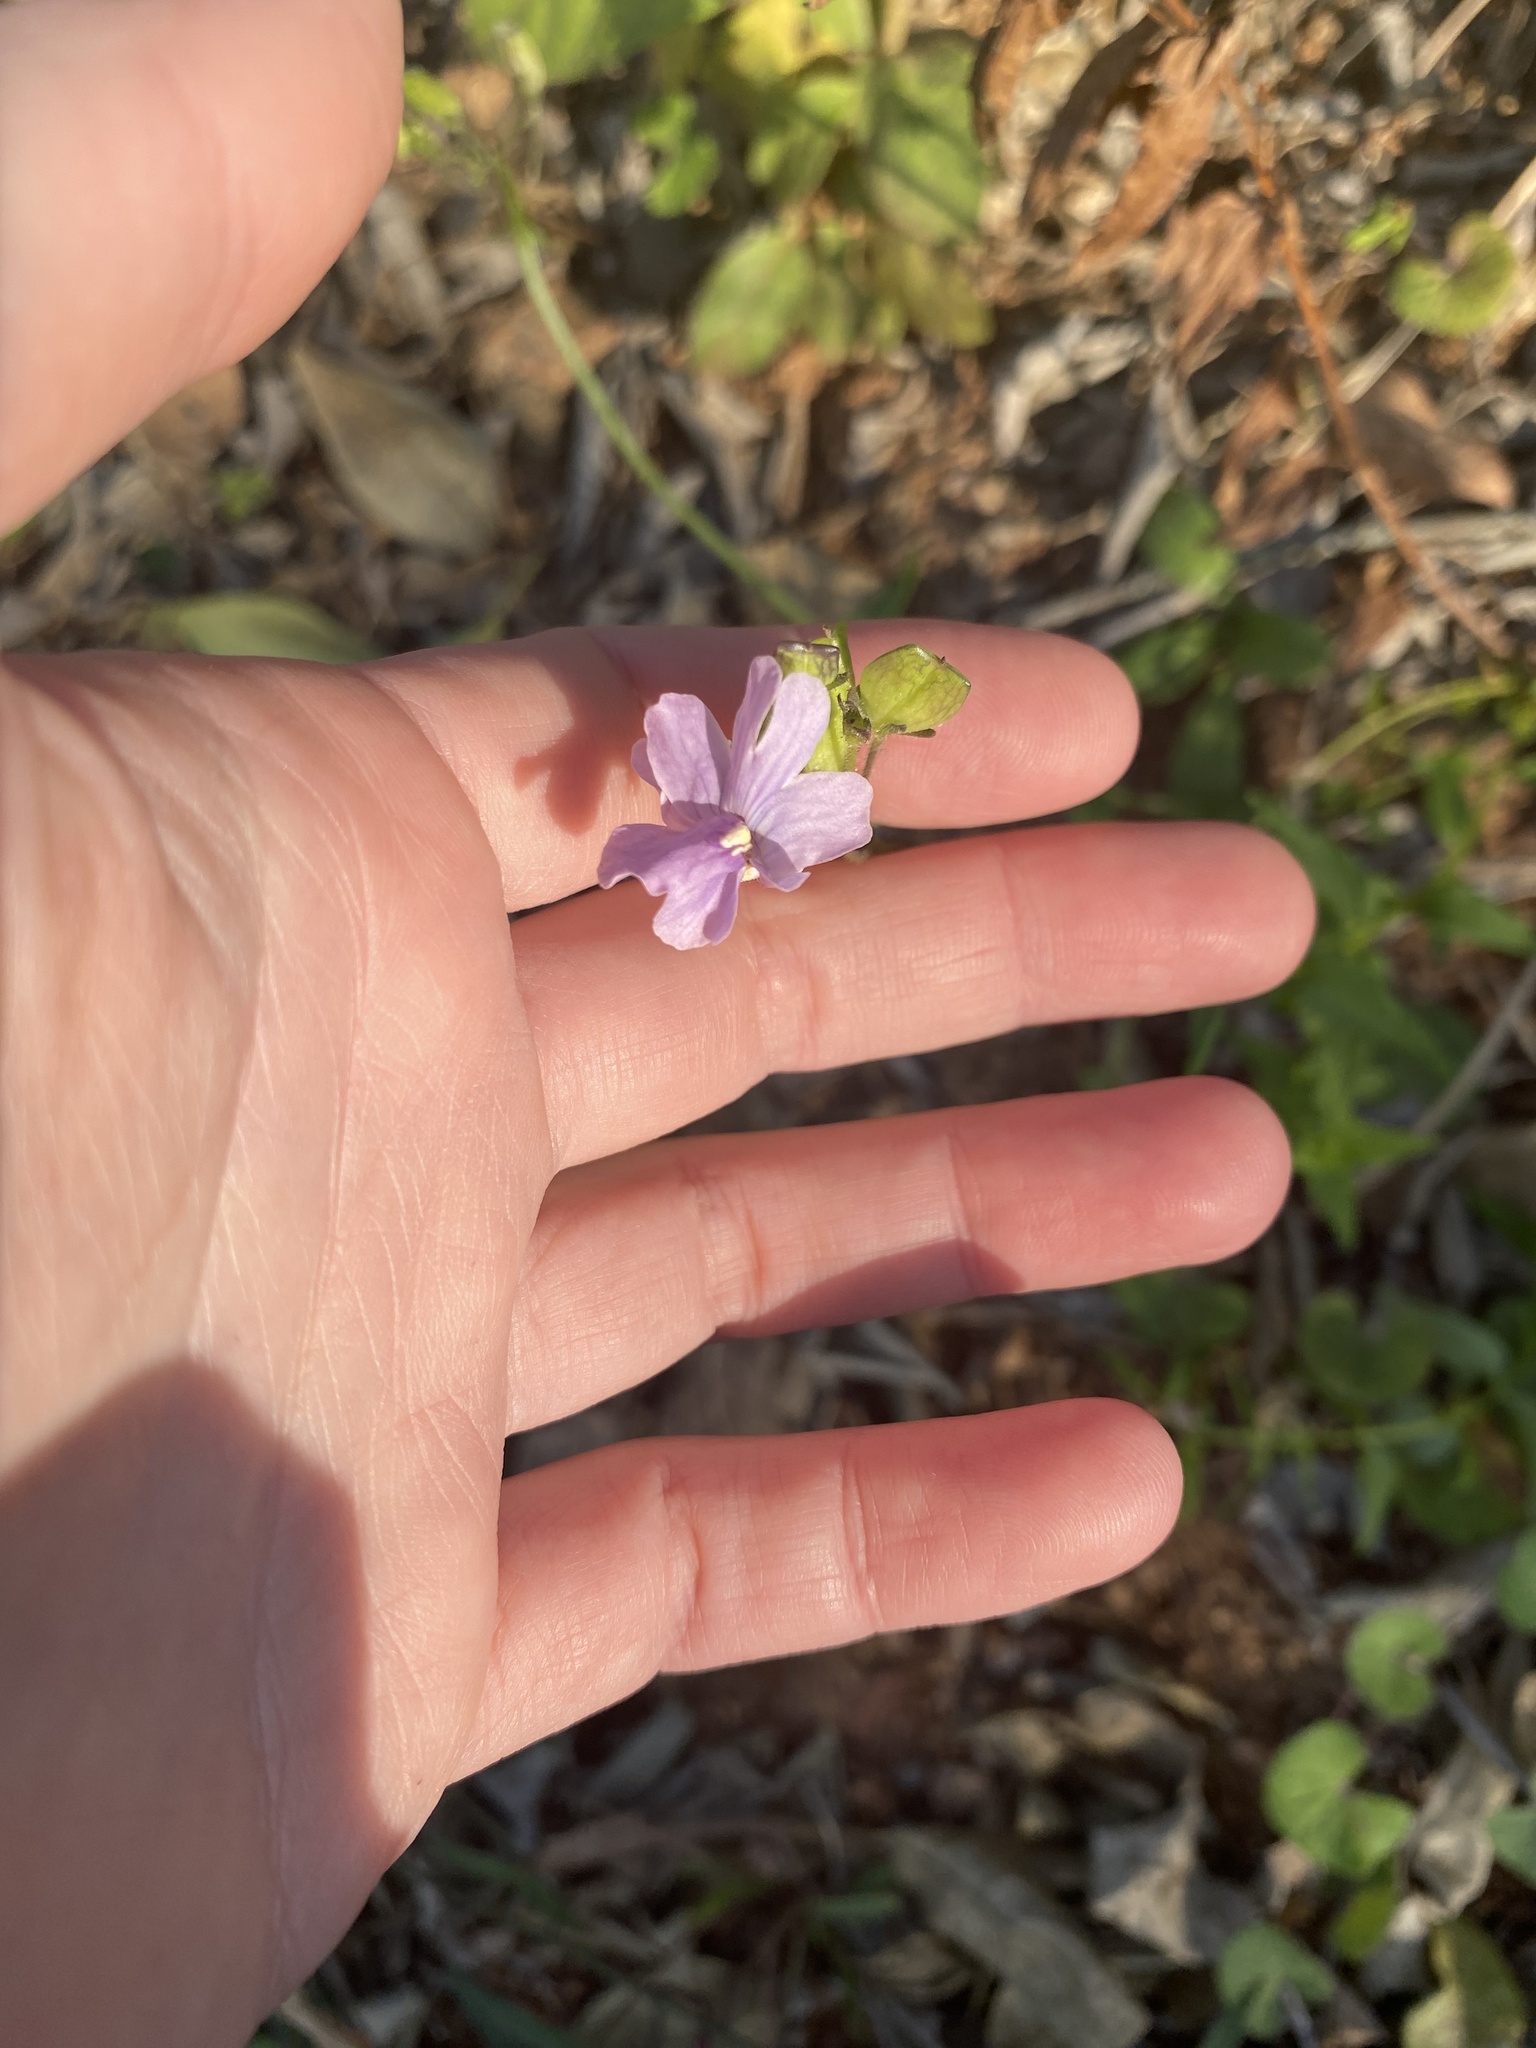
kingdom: Plantae
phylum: Tracheophyta
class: Magnoliopsida
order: Lamiales
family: Scrophulariaceae
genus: Nemesia
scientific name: Nemesia denticulata
